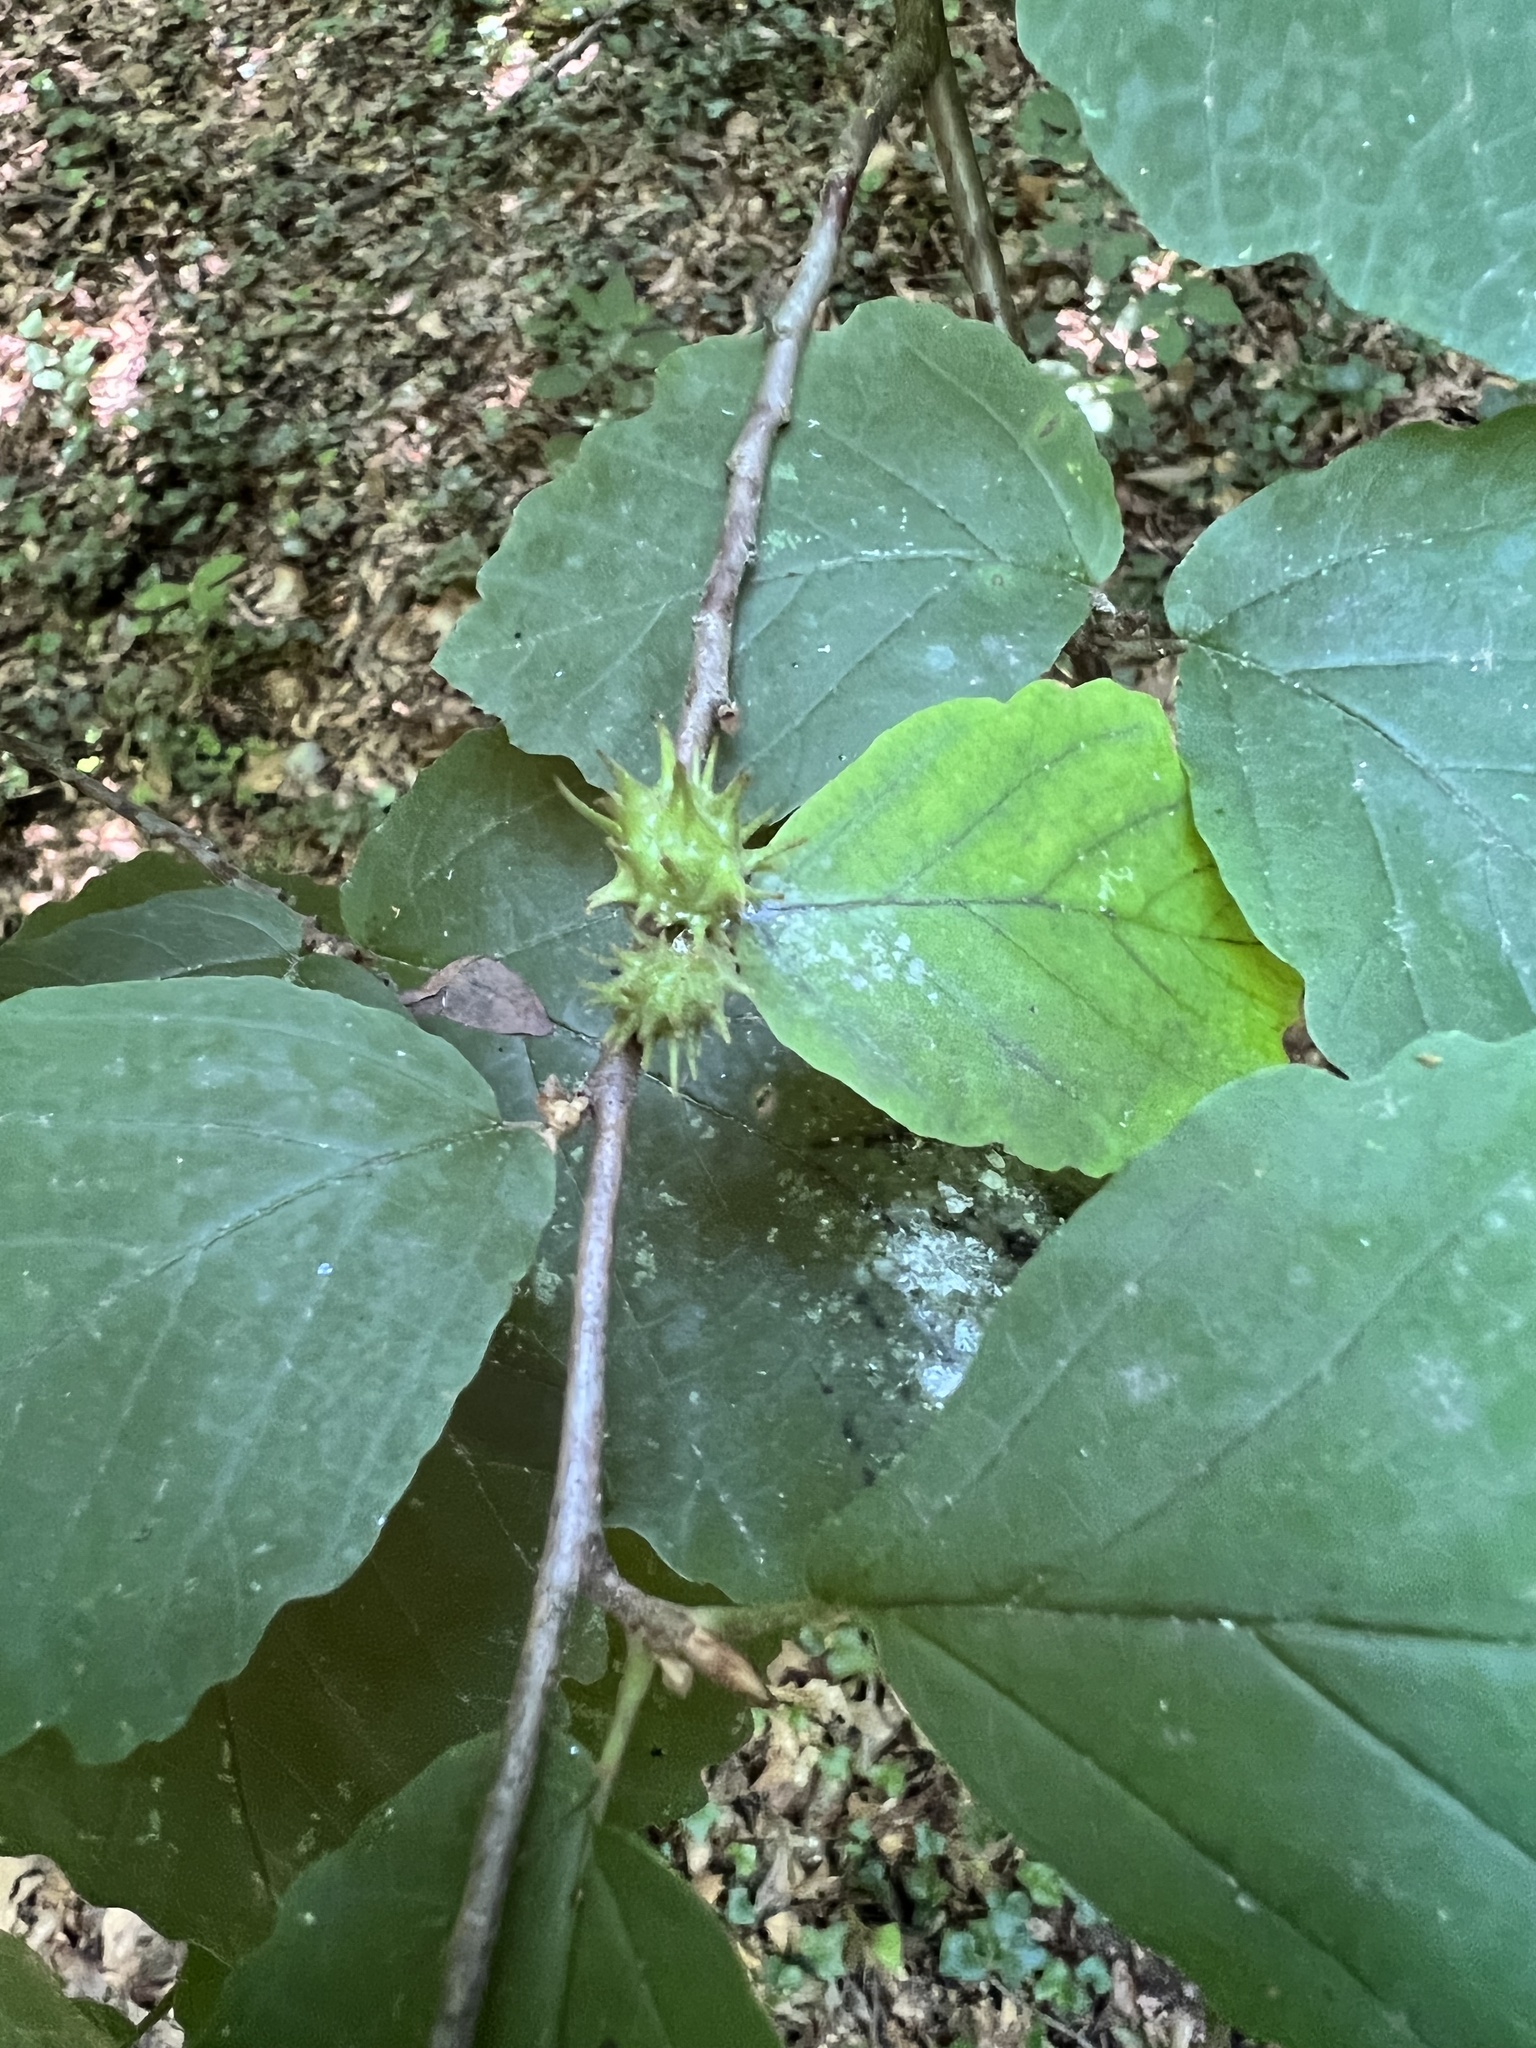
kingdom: Plantae
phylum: Tracheophyta
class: Magnoliopsida
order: Saxifragales
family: Hamamelidaceae
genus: Hamamelis
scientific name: Hamamelis virginiana
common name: Witch-hazel
